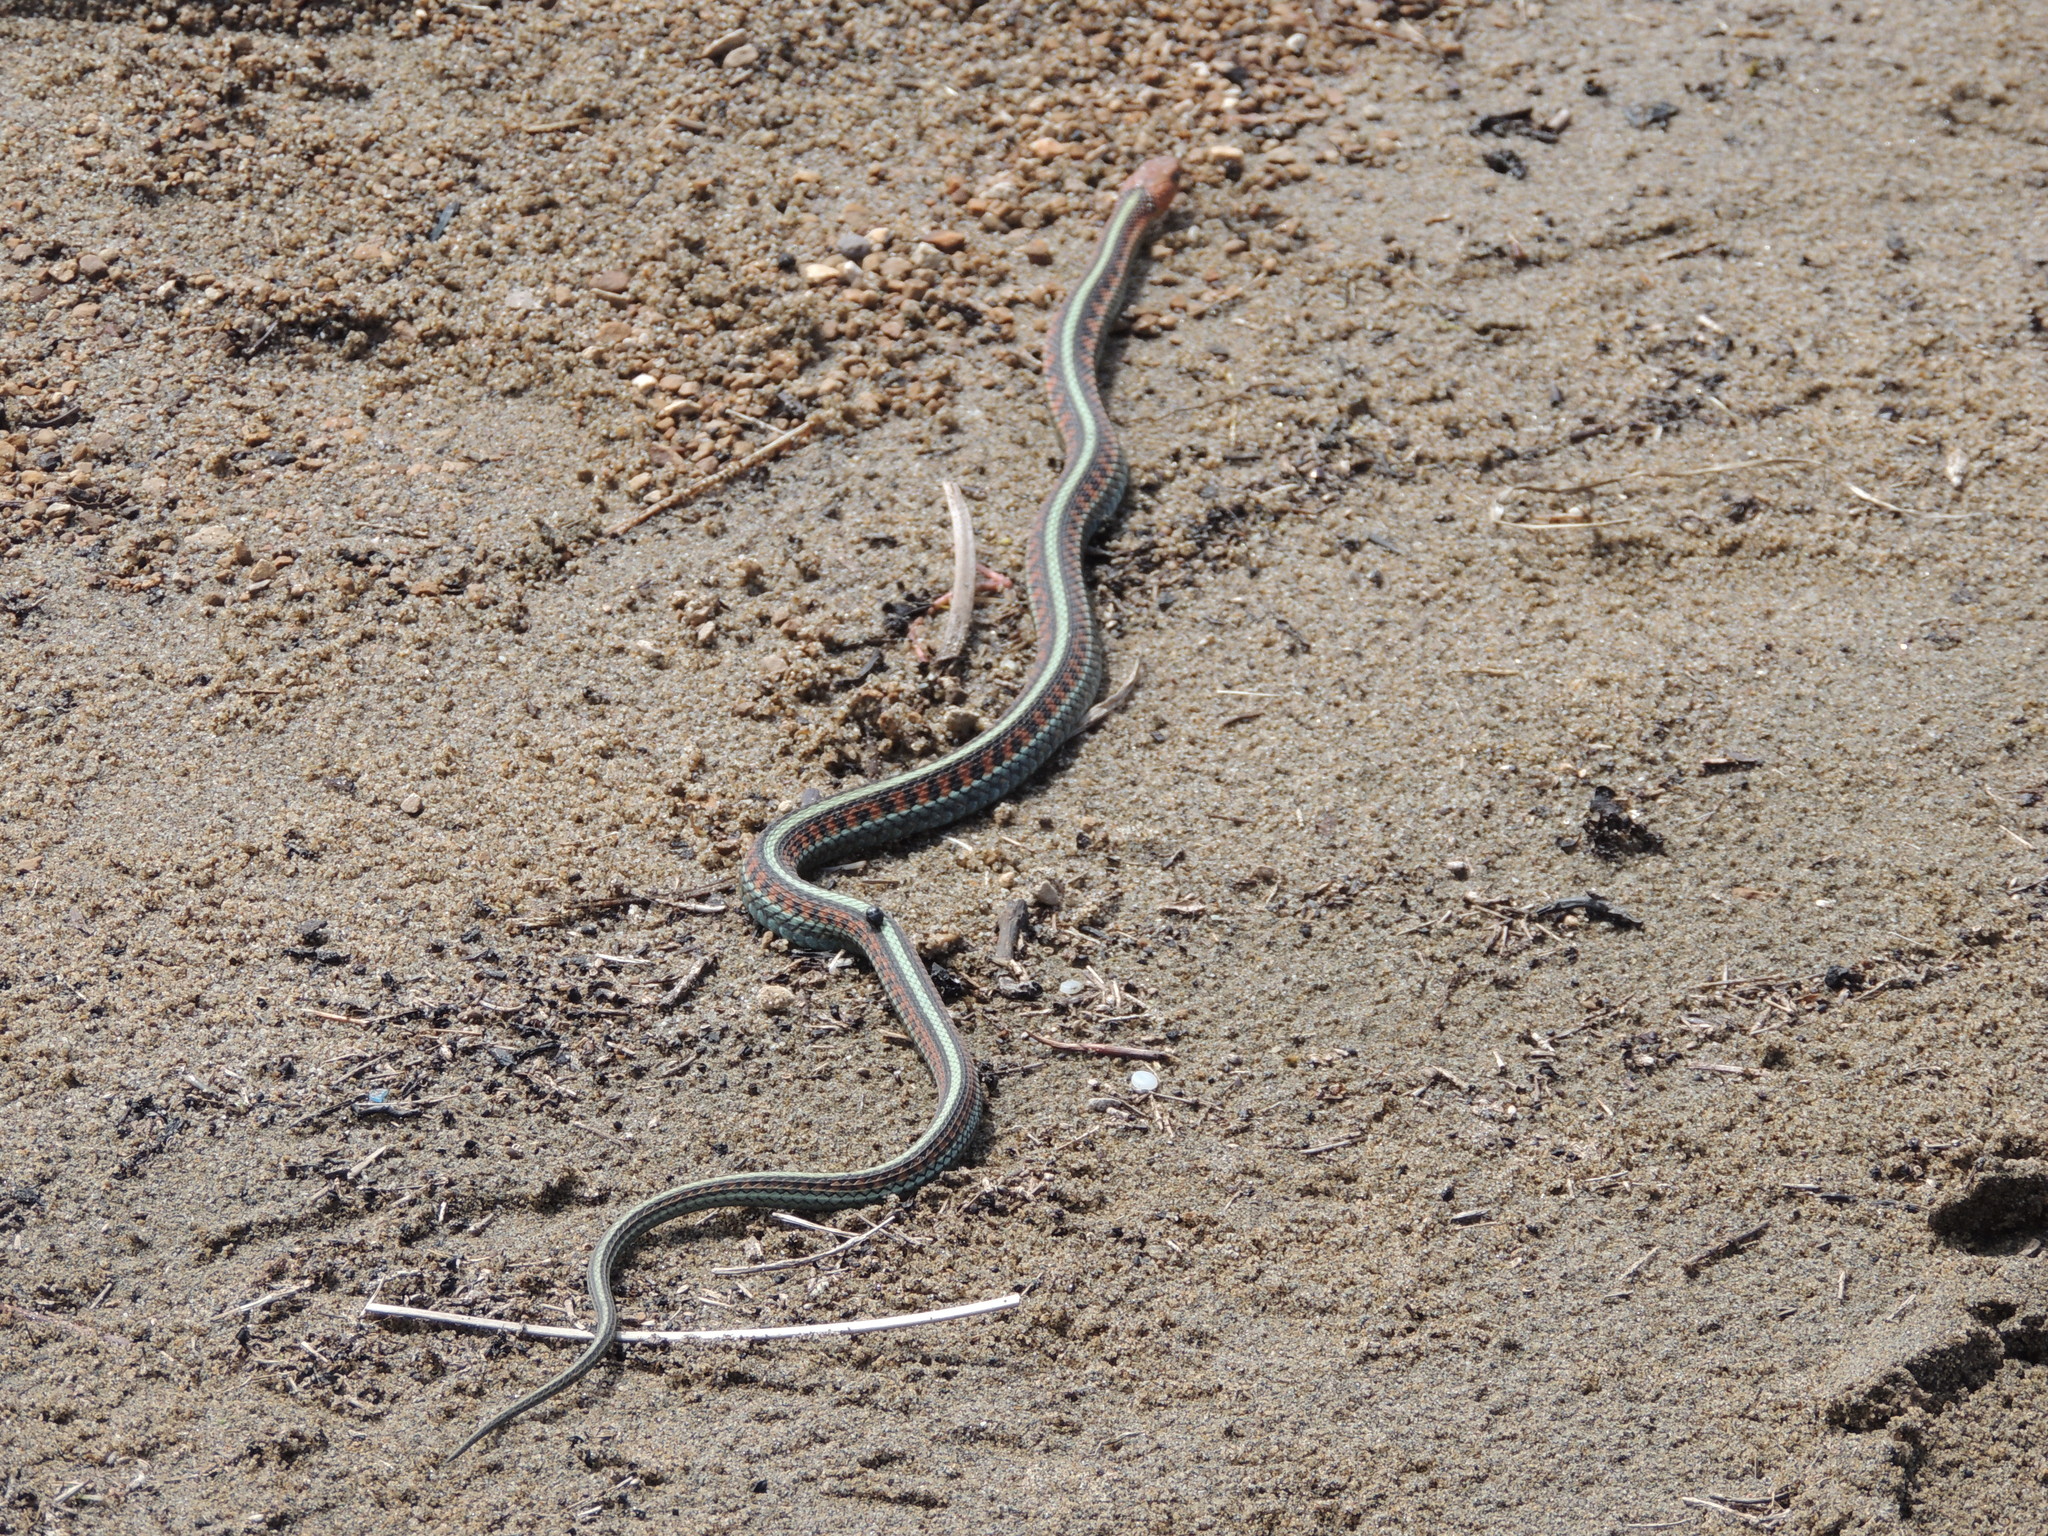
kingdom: Animalia
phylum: Chordata
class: Squamata
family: Colubridae
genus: Thamnophis
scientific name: Thamnophis sirtalis
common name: Common garter snake
